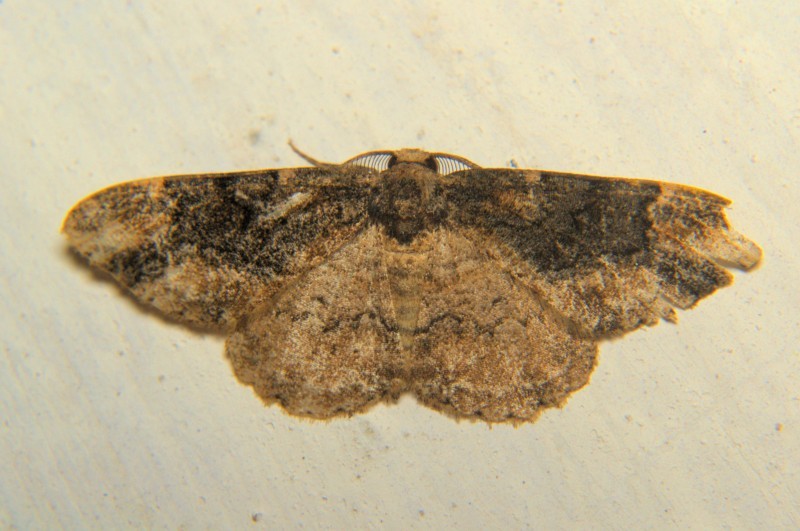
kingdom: Animalia
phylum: Arthropoda
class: Insecta
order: Lepidoptera
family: Geometridae
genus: Parapholodes
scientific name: Parapholodes
